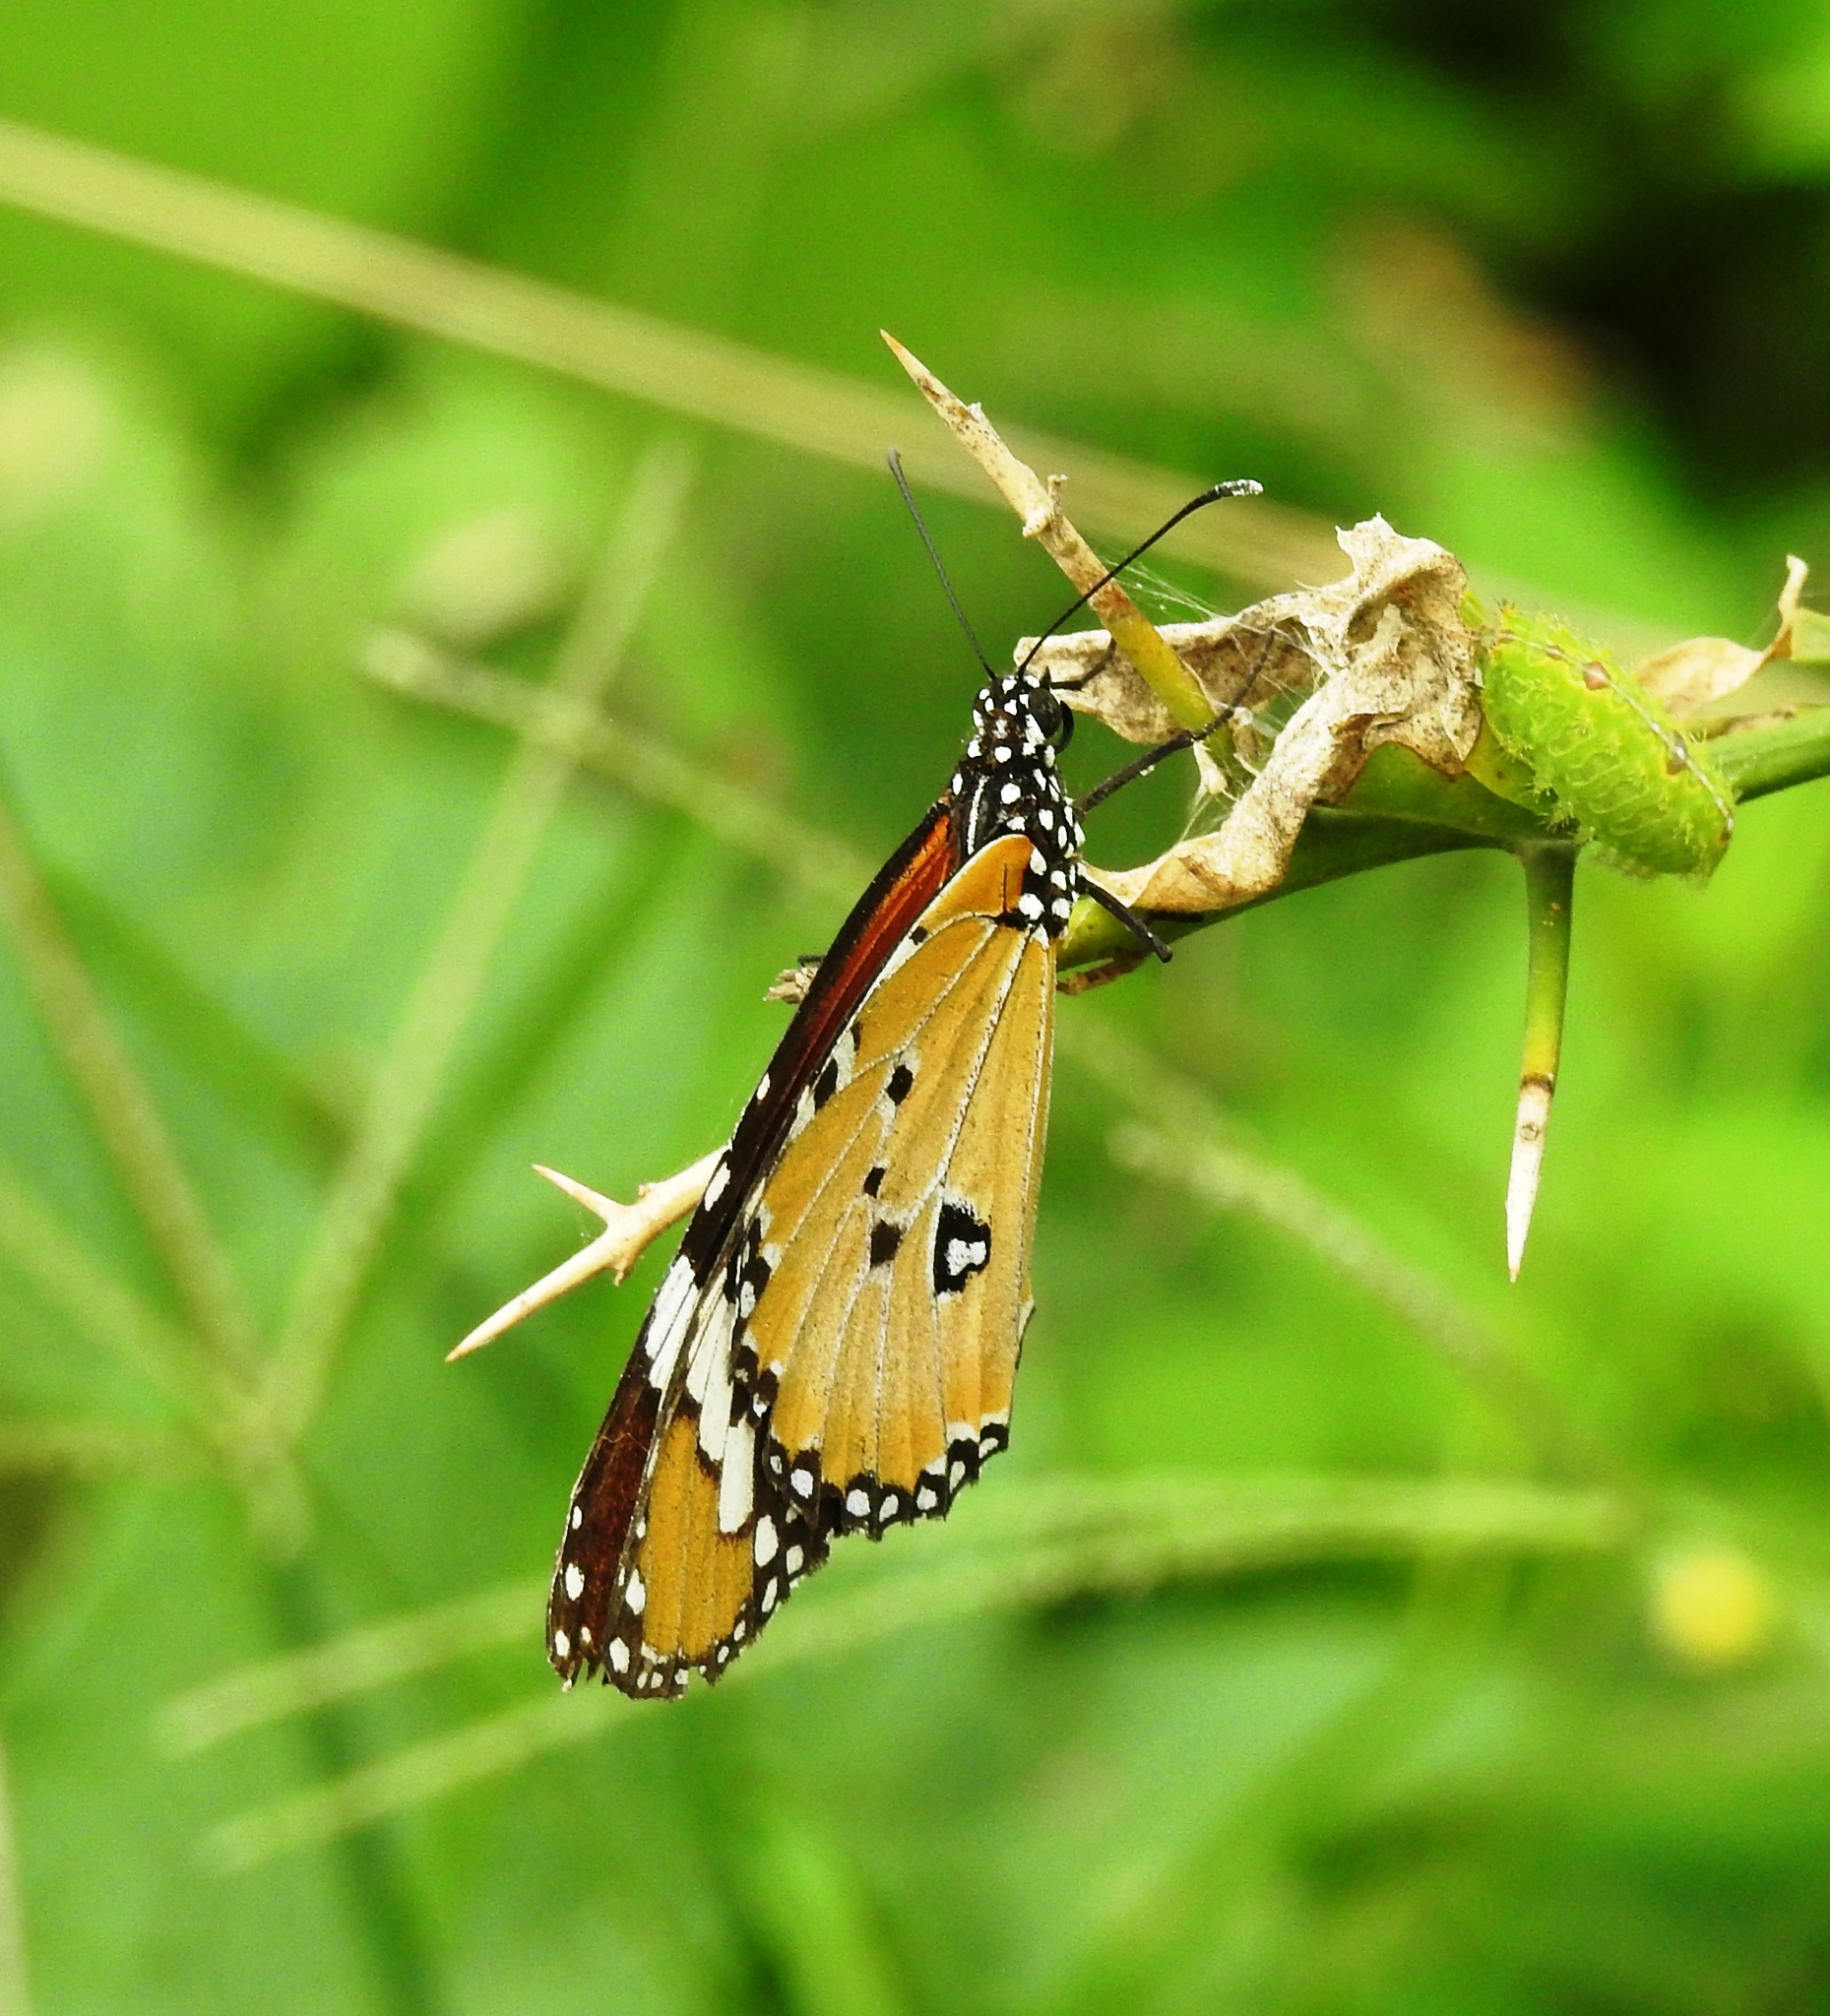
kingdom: Animalia
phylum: Arthropoda
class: Insecta
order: Lepidoptera
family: Nymphalidae
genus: Danaus
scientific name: Danaus chrysippus
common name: Plain tiger
